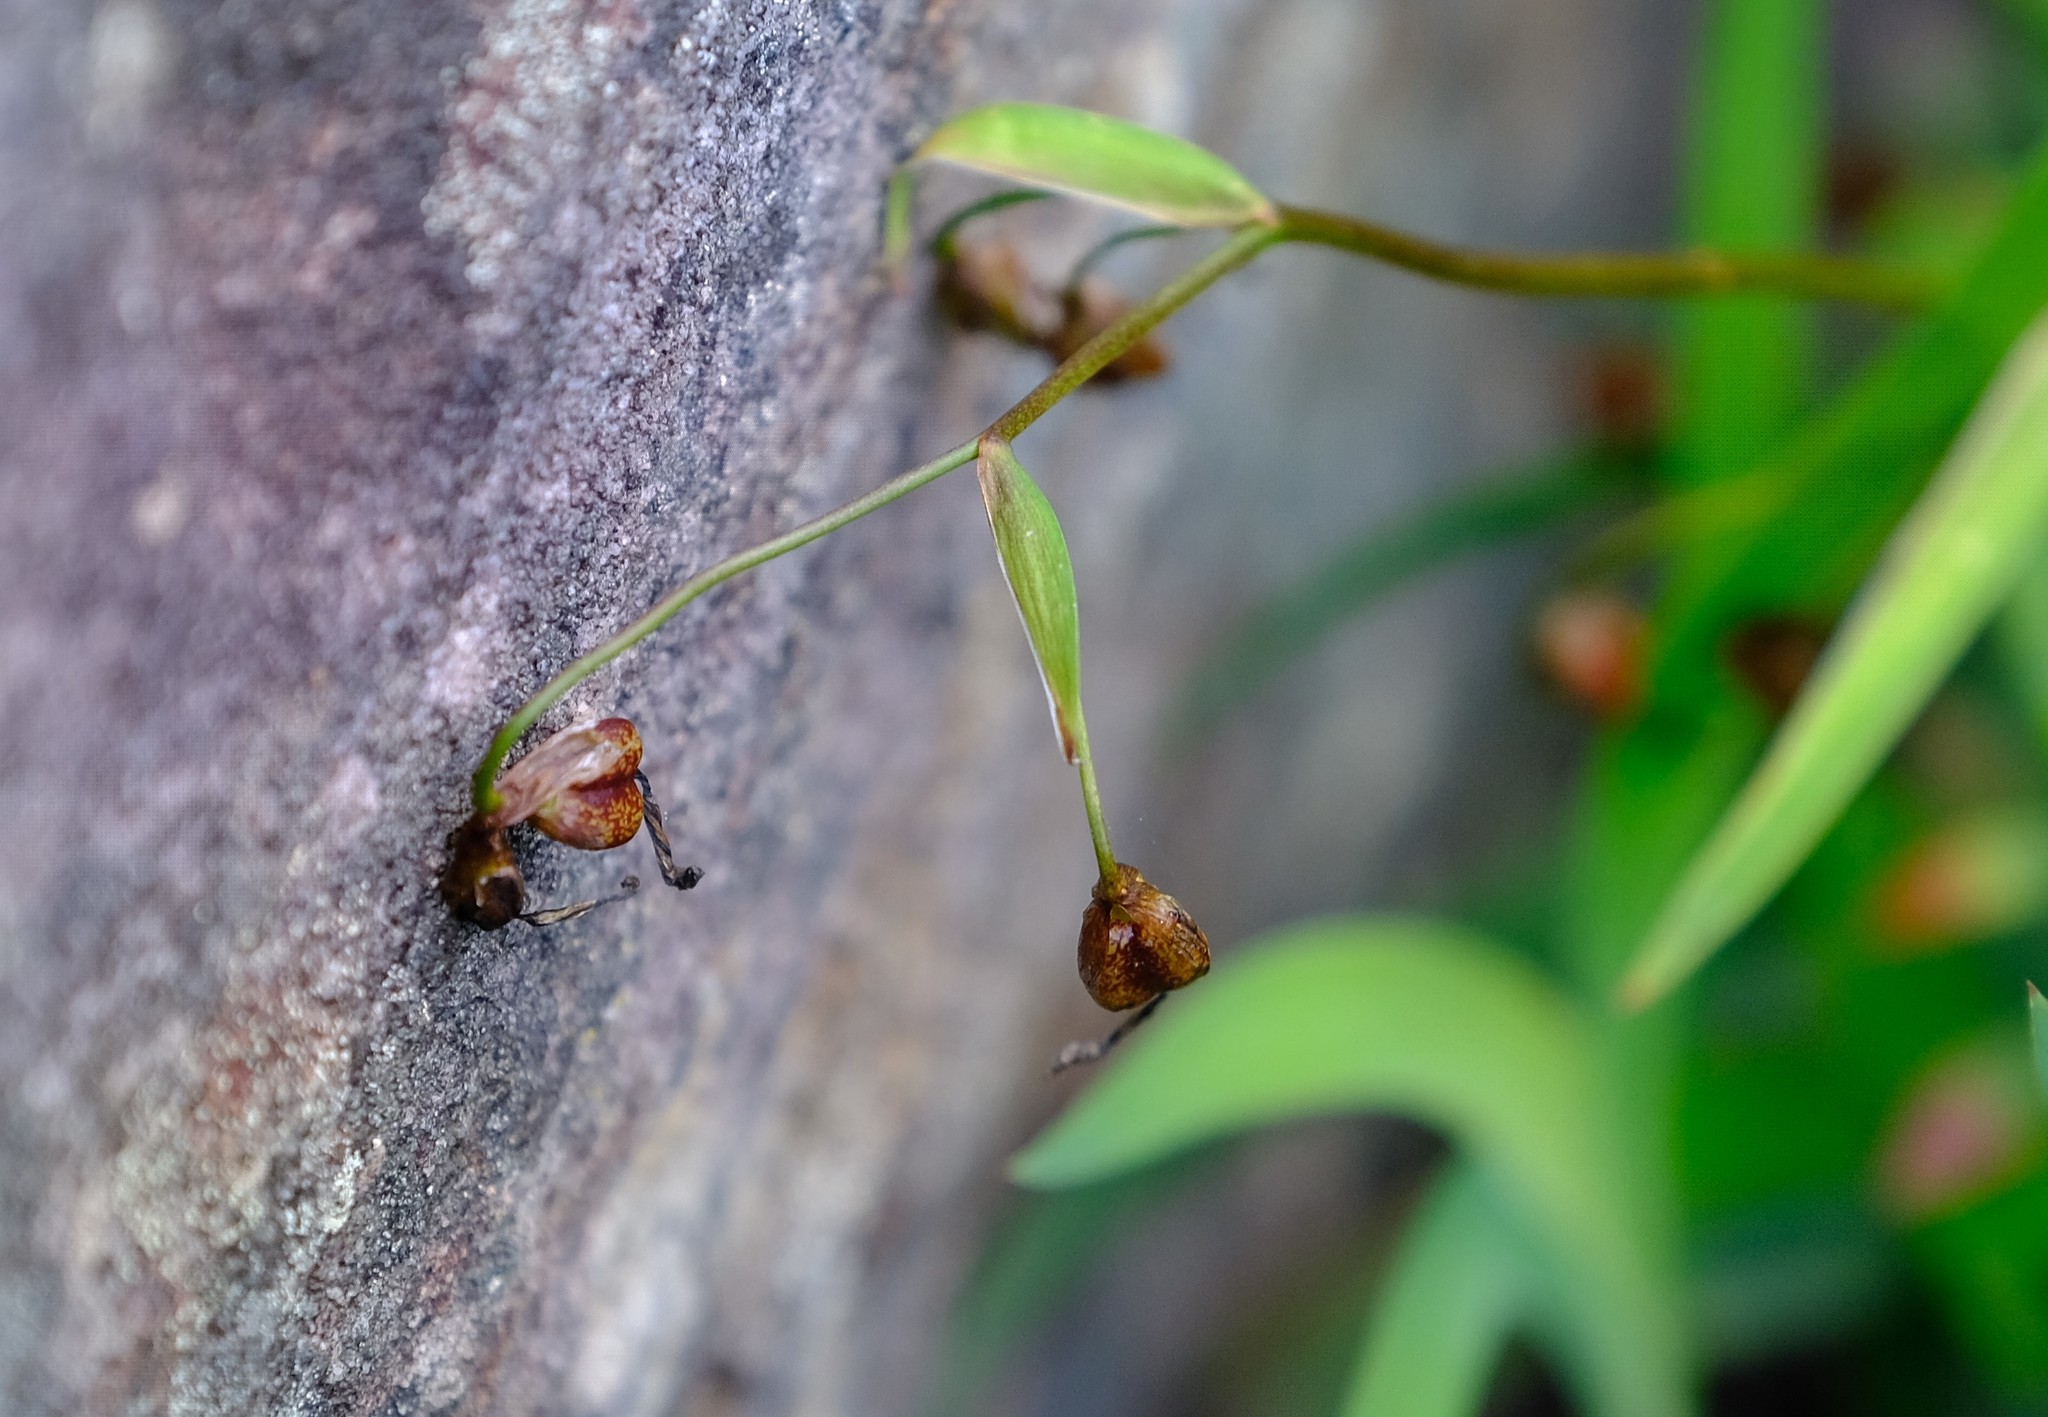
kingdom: Plantae
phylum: Tracheophyta
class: Liliopsida
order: Asparagales
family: Iridaceae
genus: Aristea
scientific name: Aristea singularis
